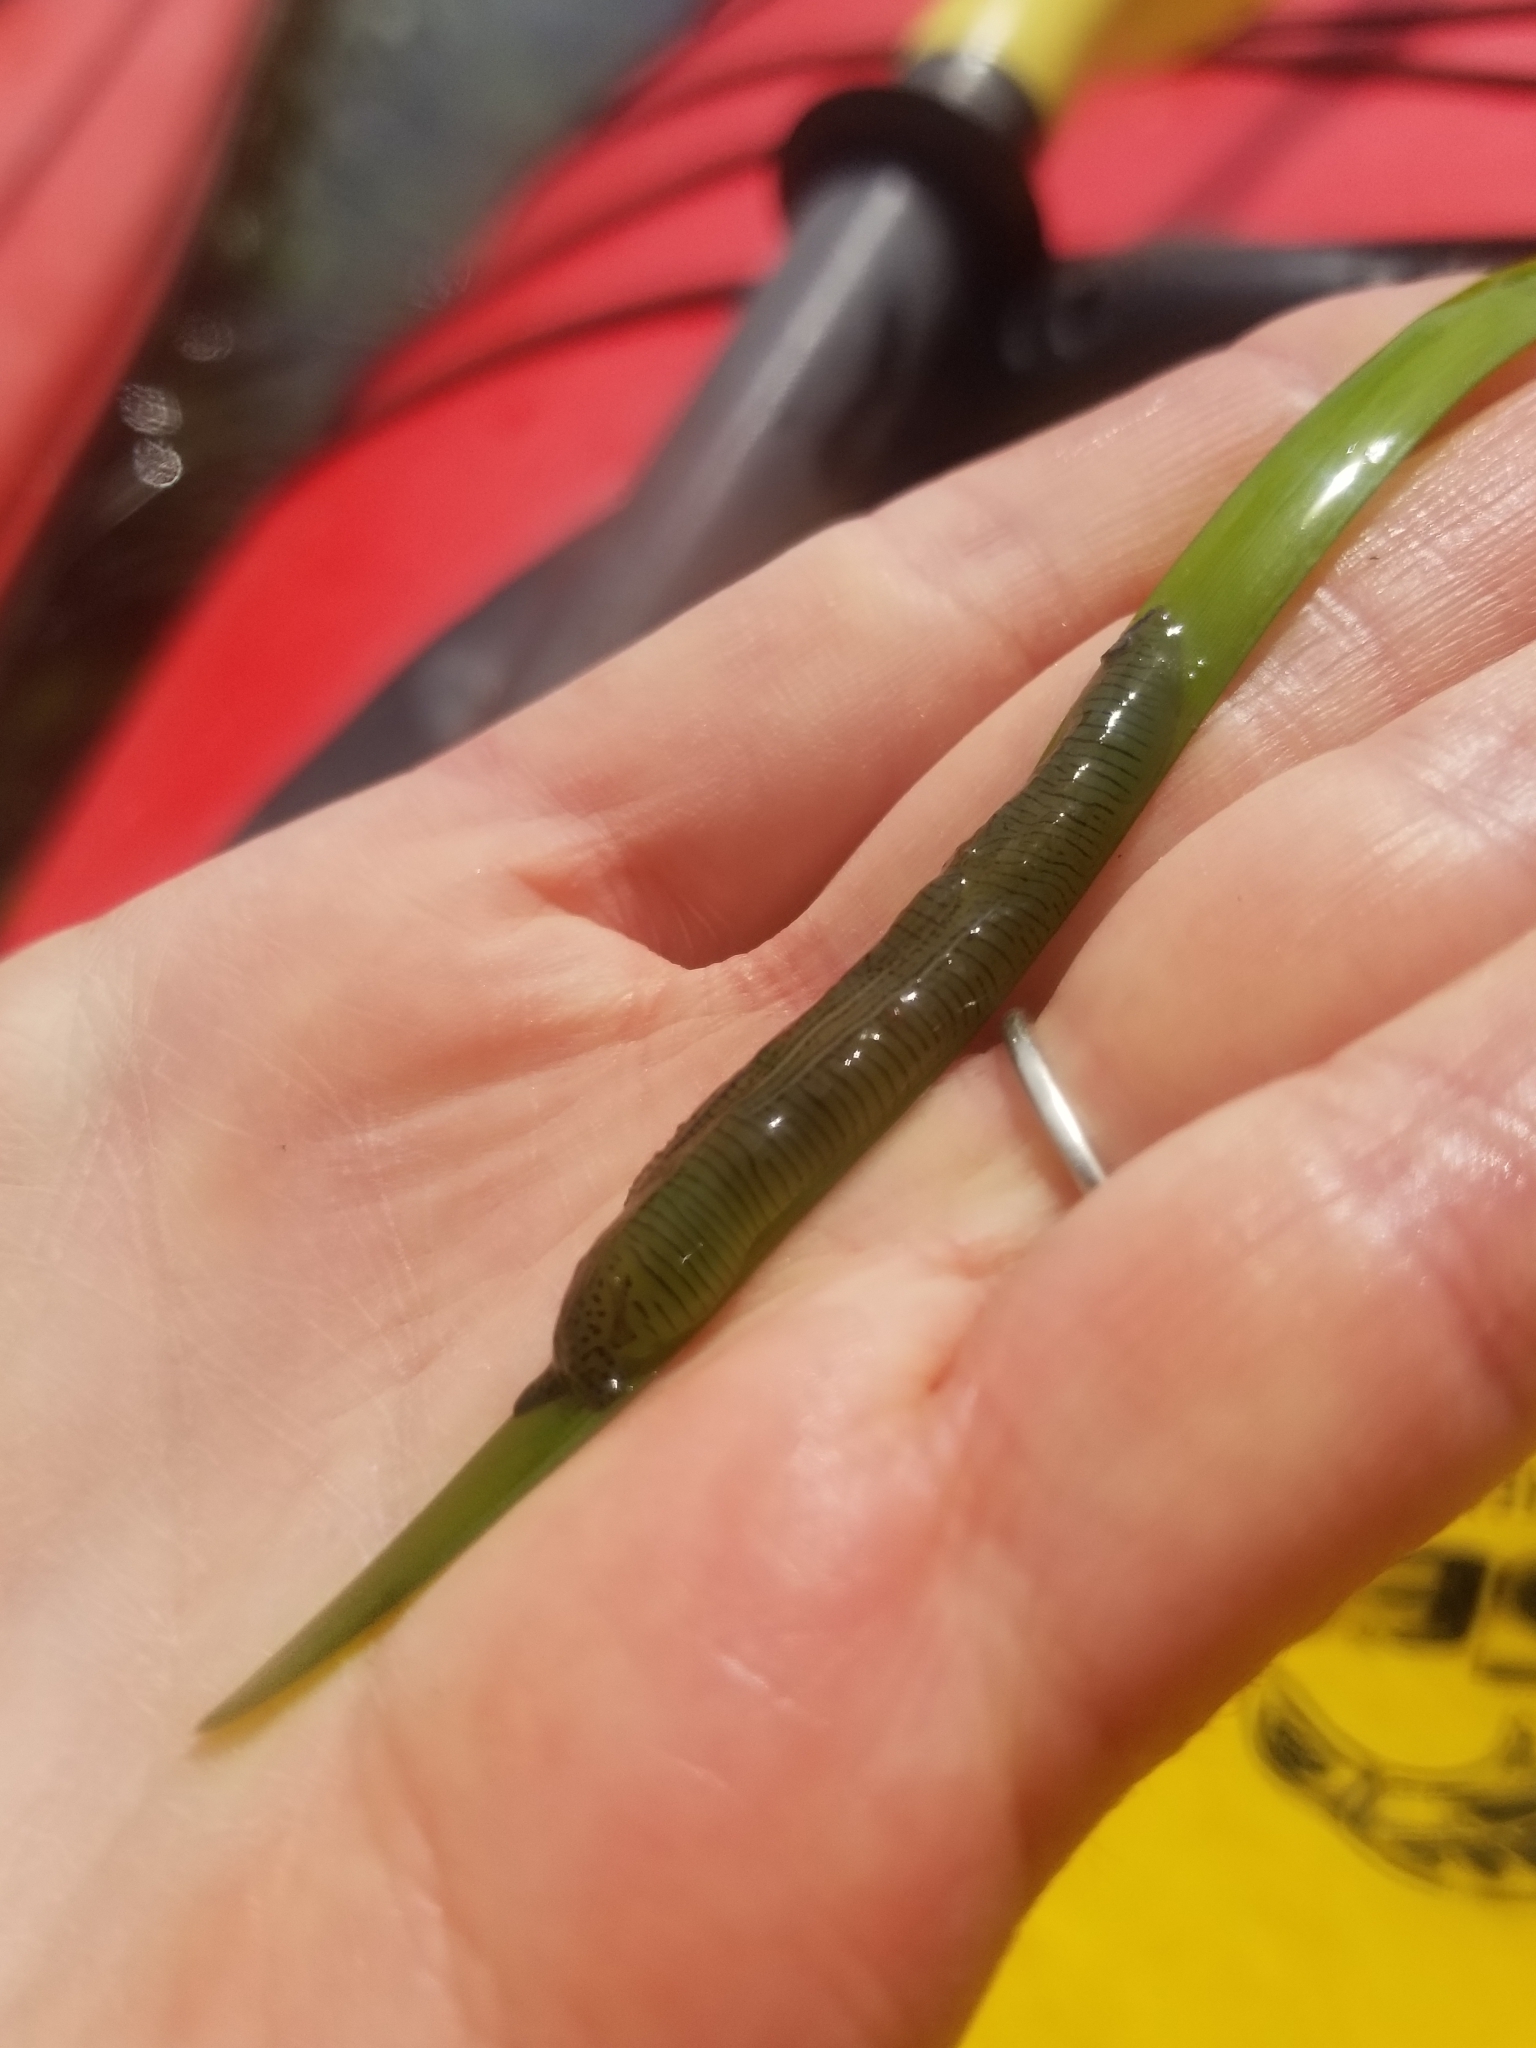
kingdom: Animalia
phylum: Mollusca
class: Gastropoda
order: Aplysiida
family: Aplysiidae
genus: Phyllaplysia
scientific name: Phyllaplysia taylori
